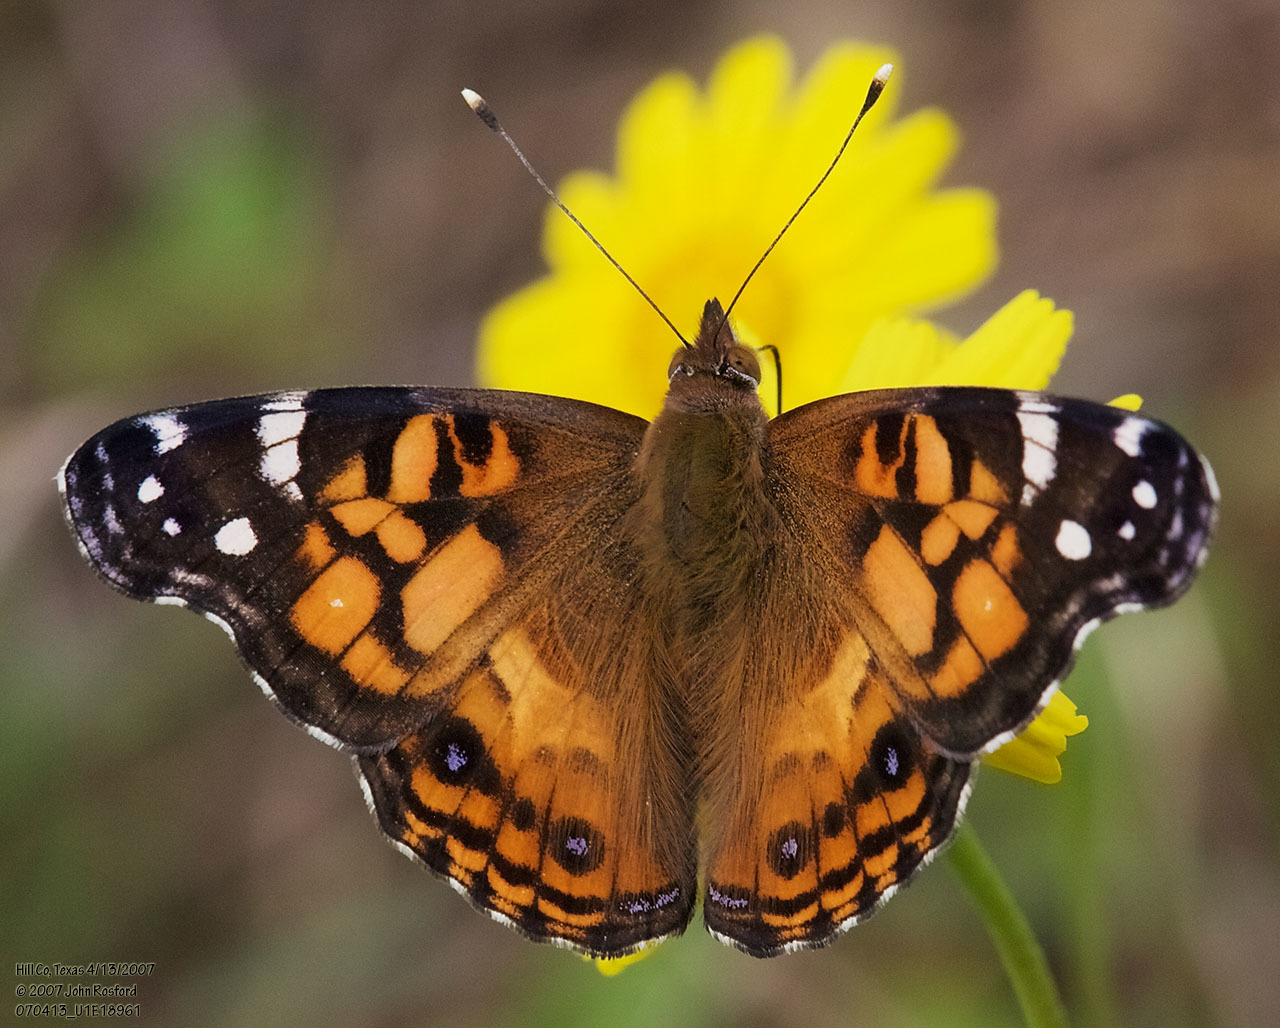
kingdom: Animalia
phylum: Arthropoda
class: Insecta
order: Lepidoptera
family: Nymphalidae
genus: Vanessa
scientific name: Vanessa virginiensis
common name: American lady
